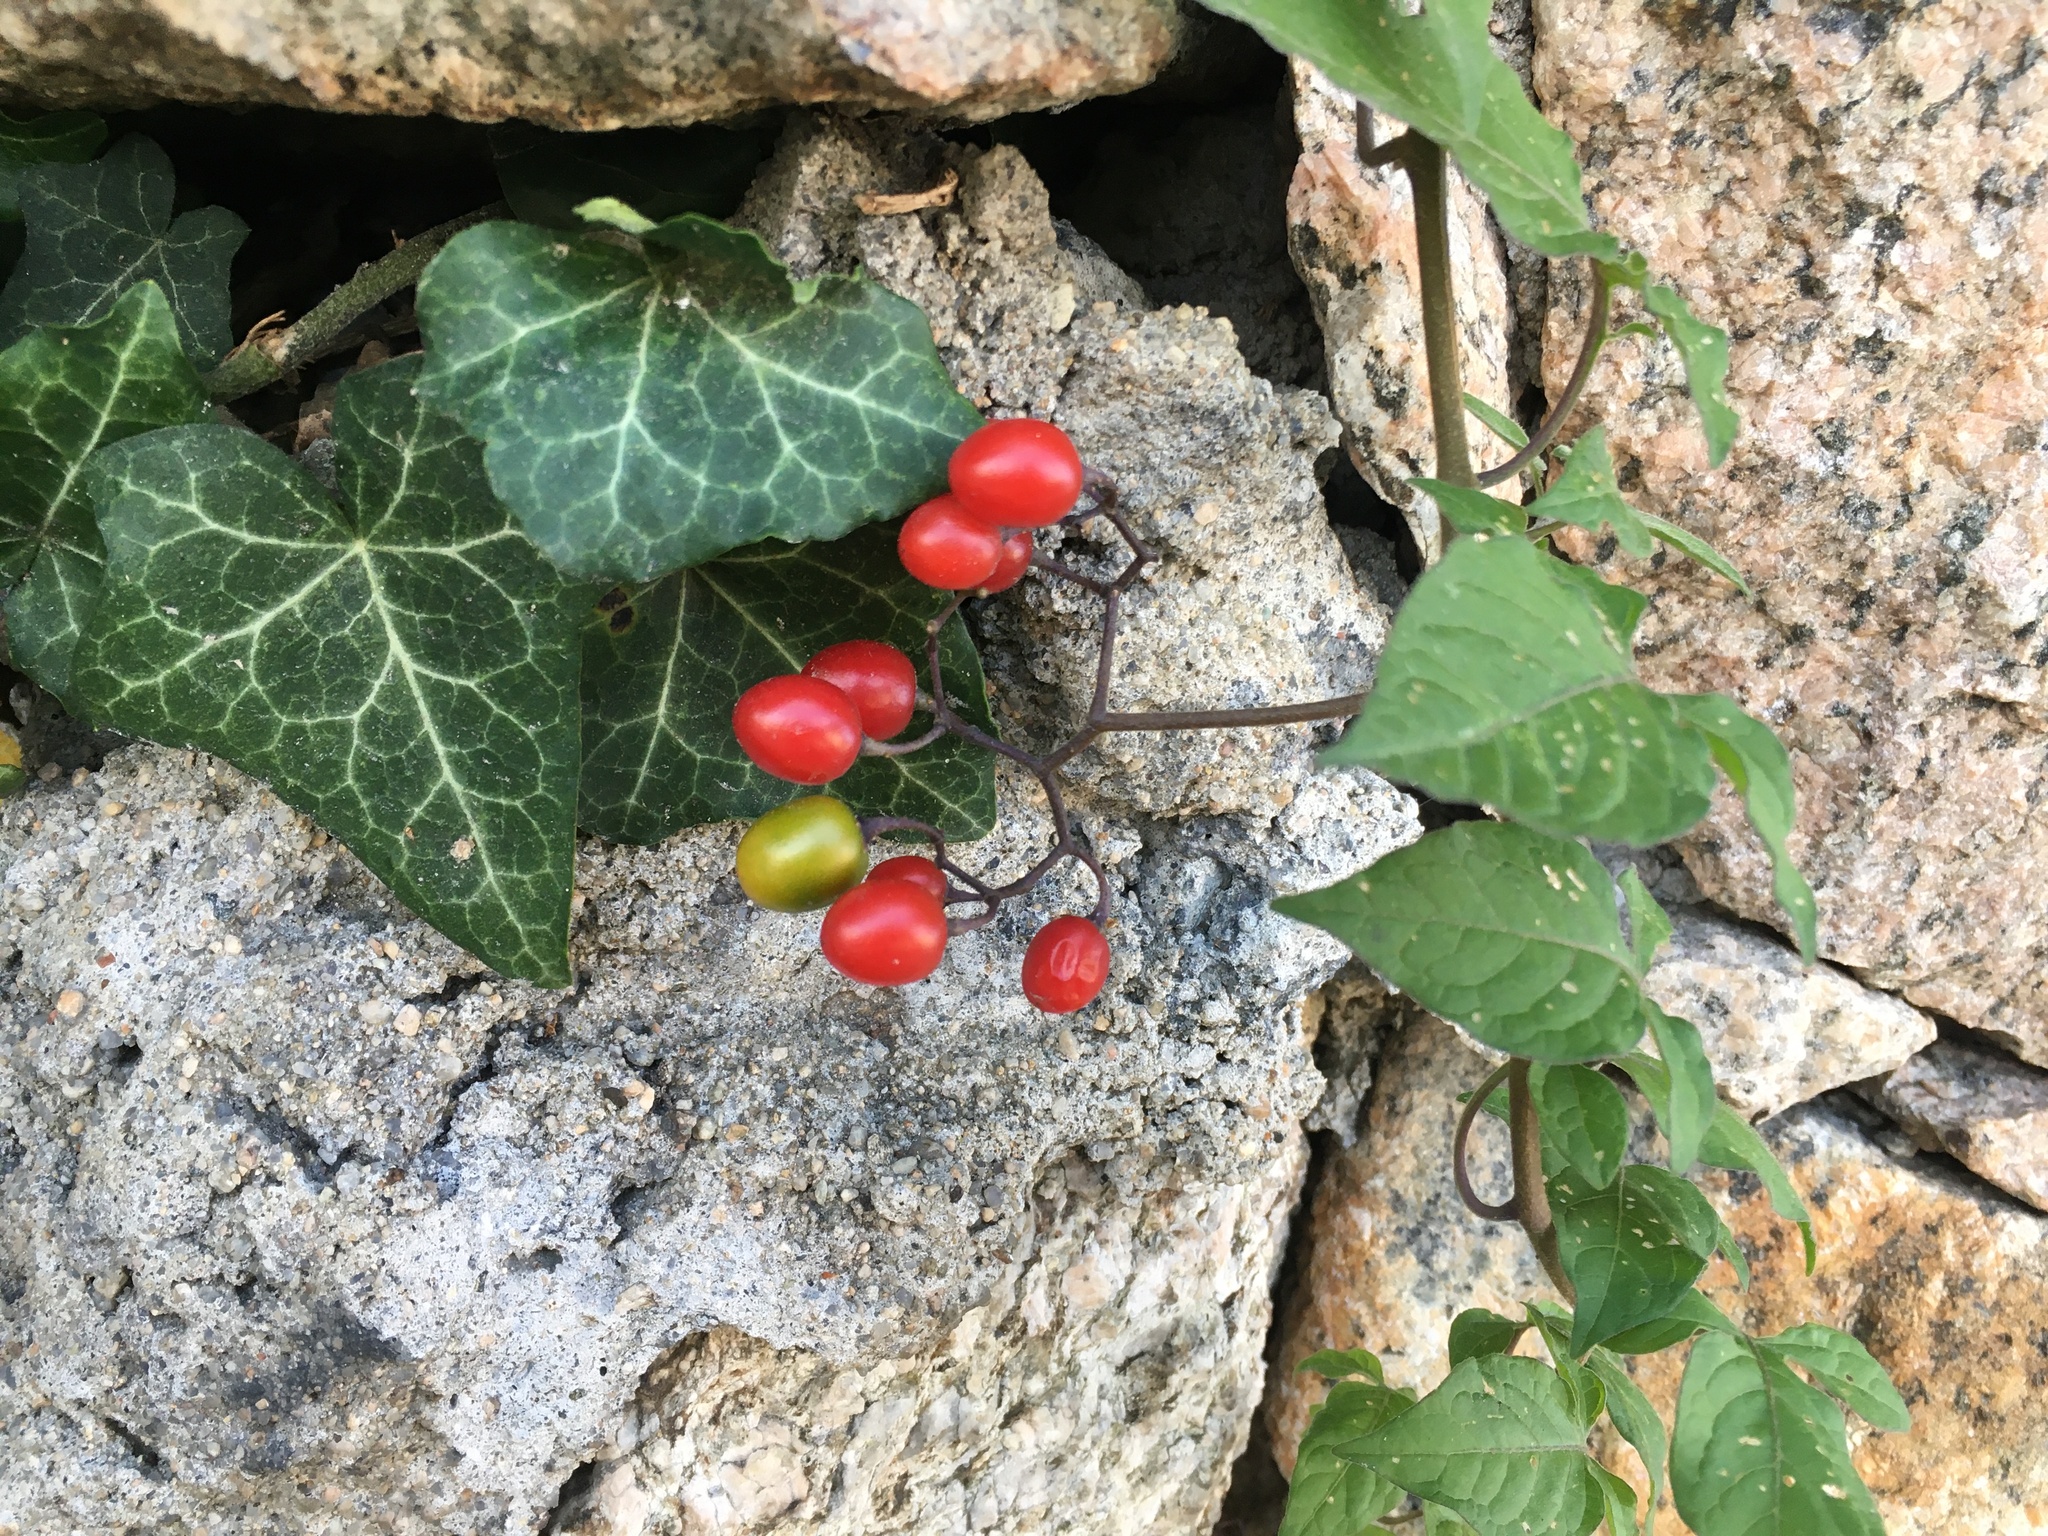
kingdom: Plantae
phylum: Tracheophyta
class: Magnoliopsida
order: Solanales
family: Solanaceae
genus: Solanum
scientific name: Solanum dulcamara
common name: Climbing nightshade
